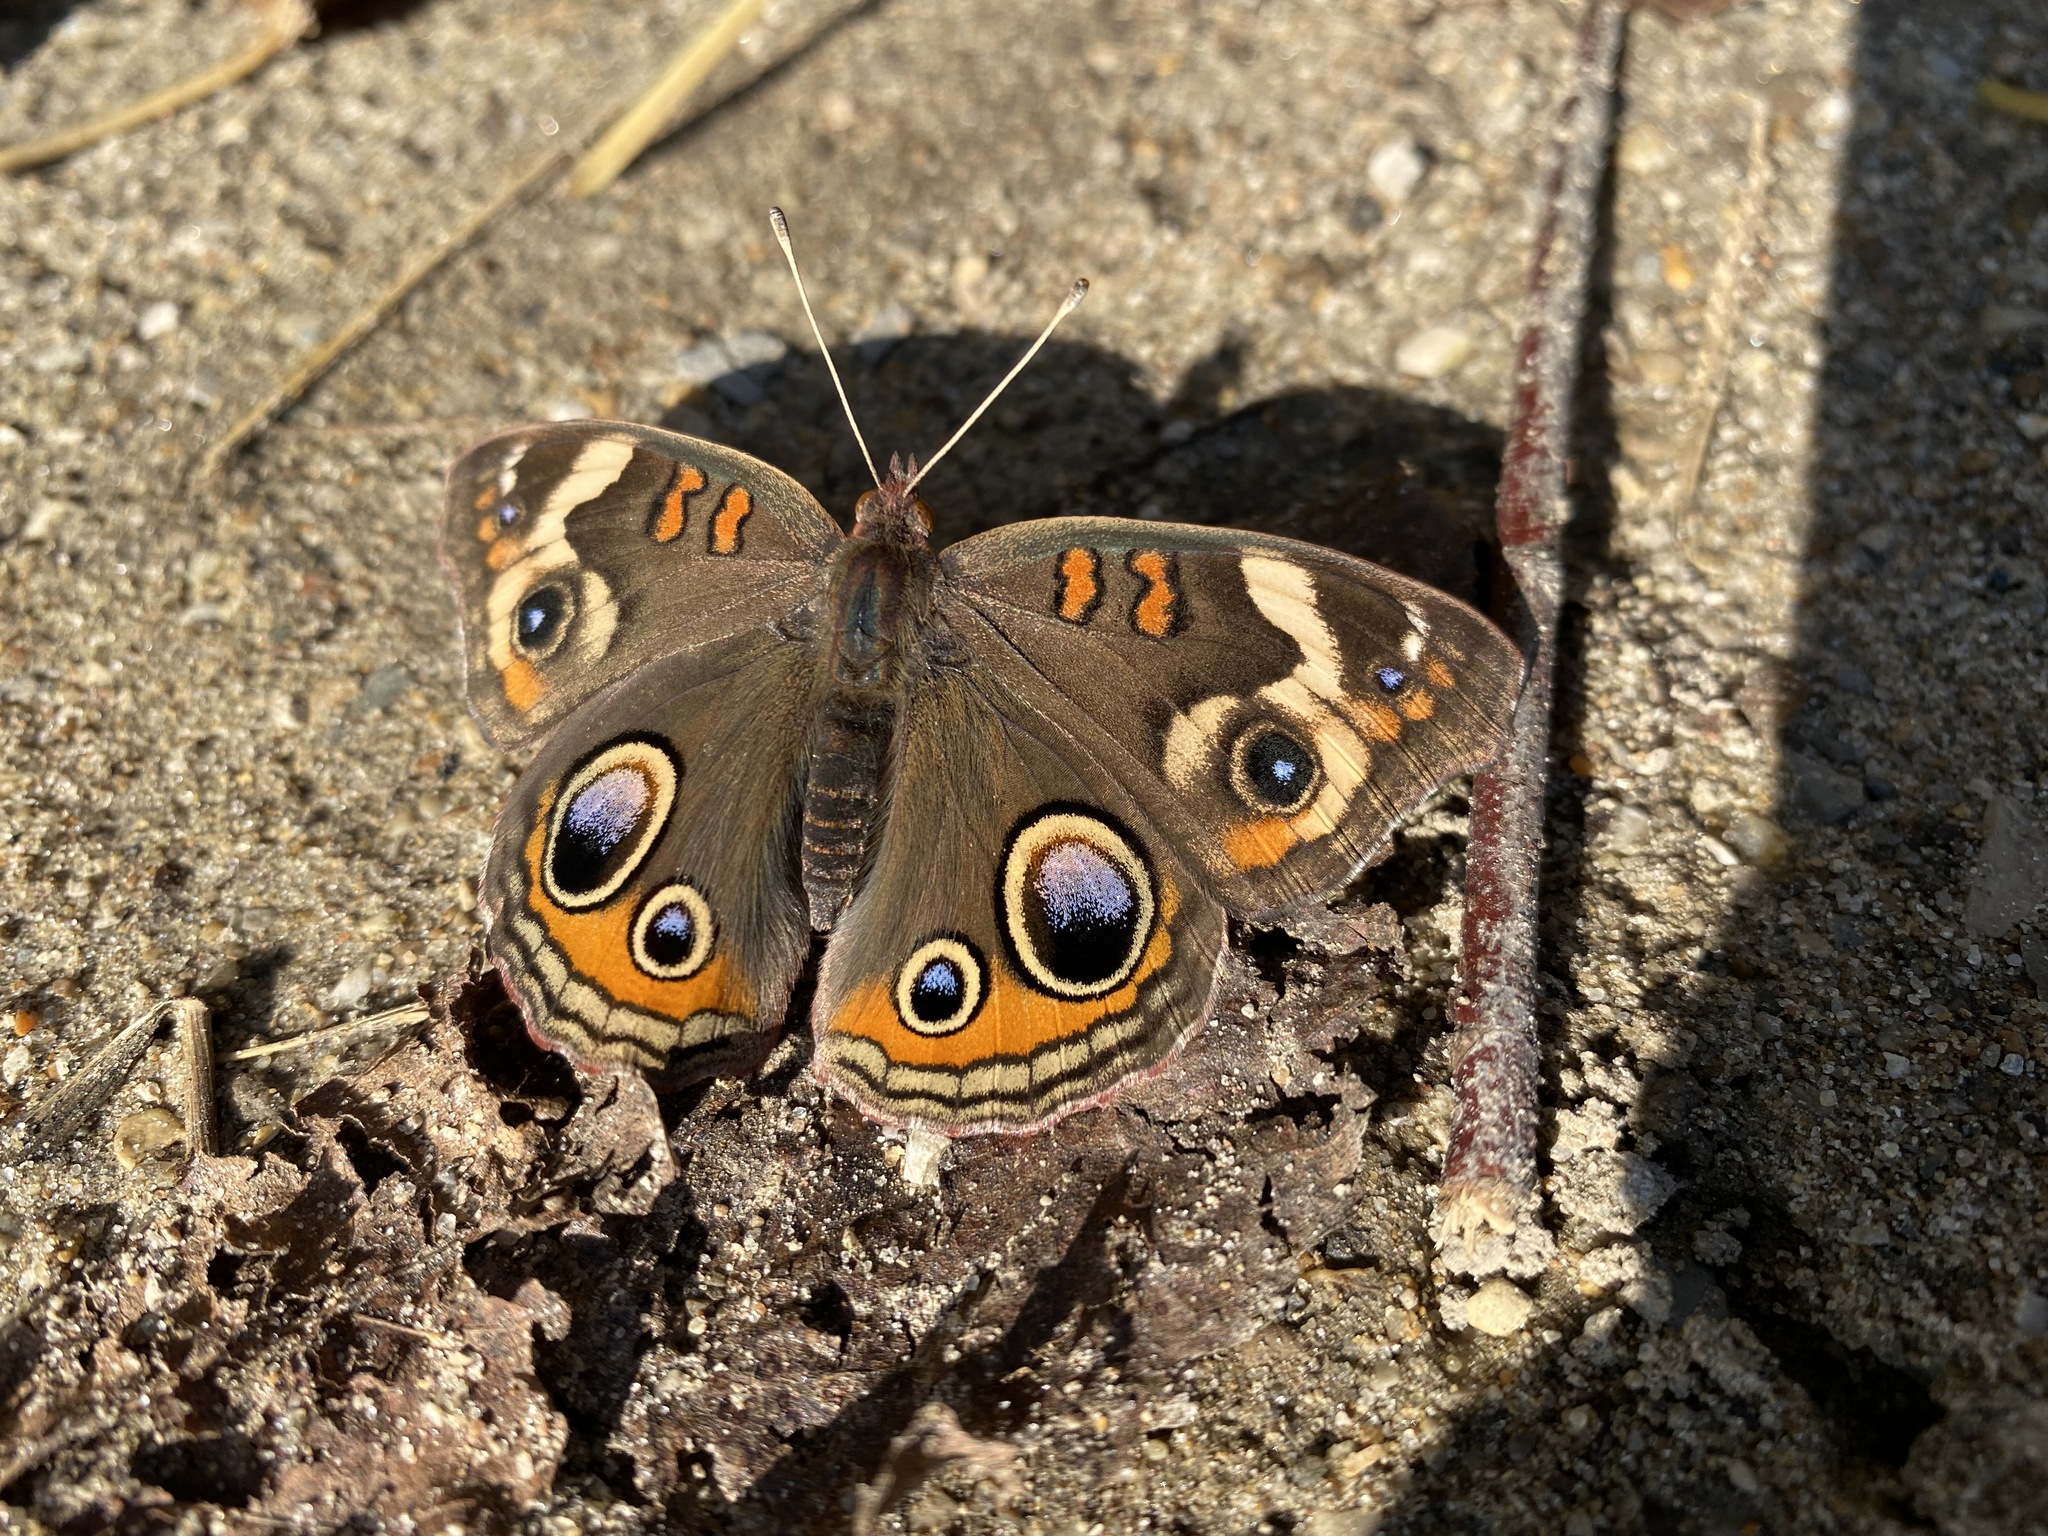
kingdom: Animalia
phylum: Arthropoda
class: Insecta
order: Lepidoptera
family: Nymphalidae
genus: Junonia
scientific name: Junonia coenia
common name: Common buckeye
